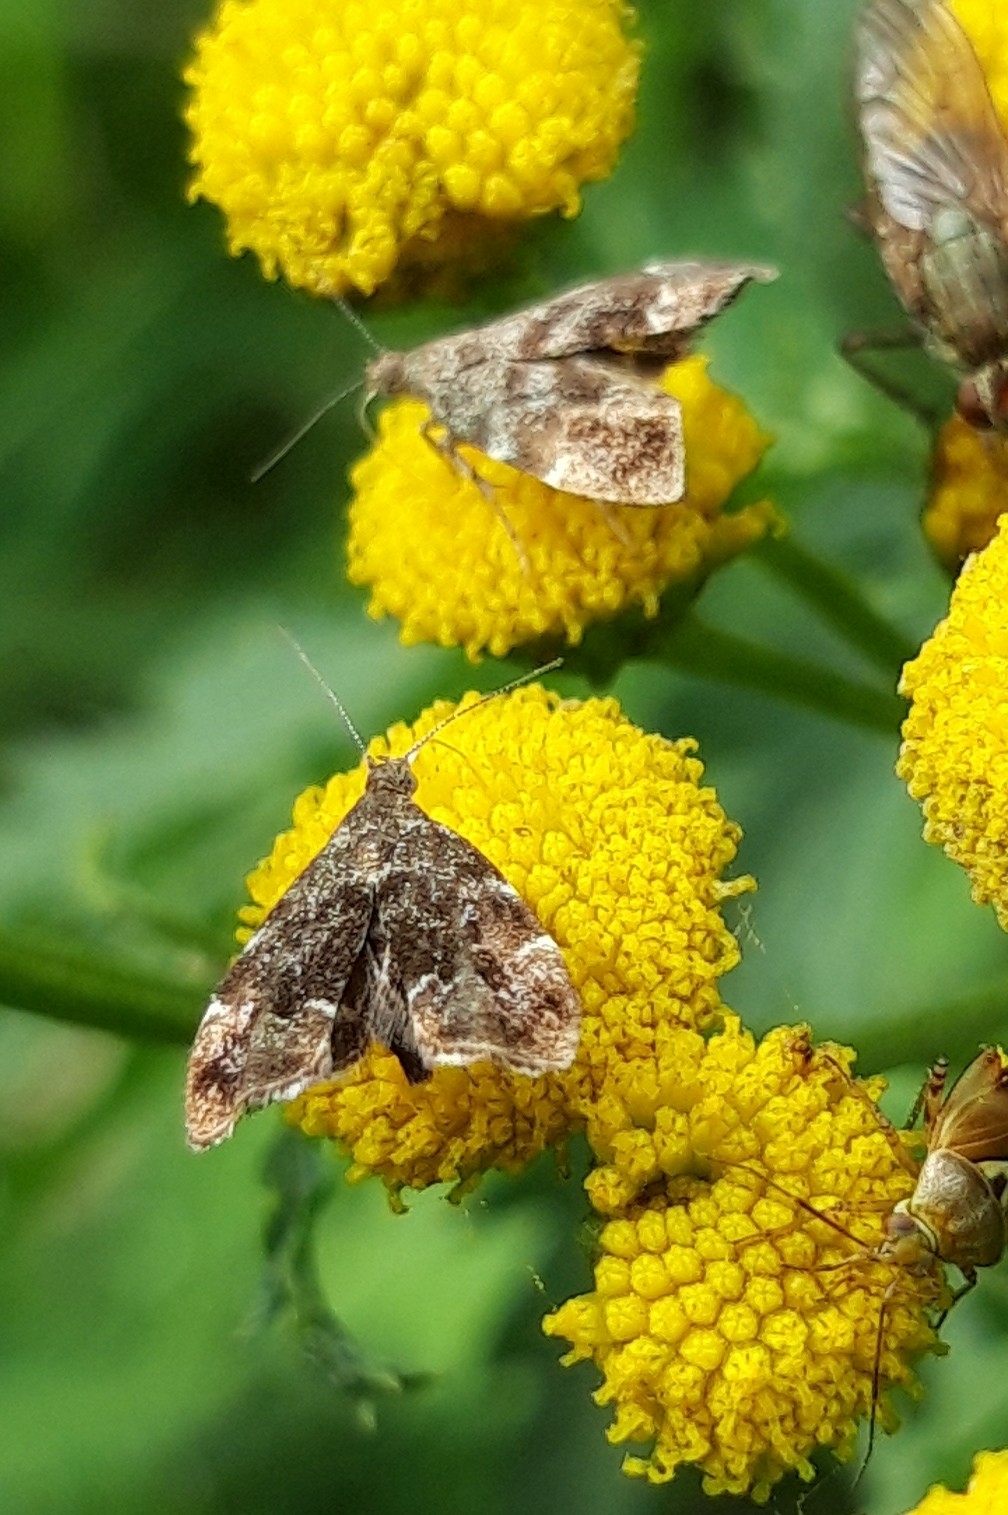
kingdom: Animalia
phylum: Arthropoda
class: Insecta
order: Lepidoptera
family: Choreutidae
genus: Anthophila
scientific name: Anthophila fabriciana
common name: Nettle-tap
